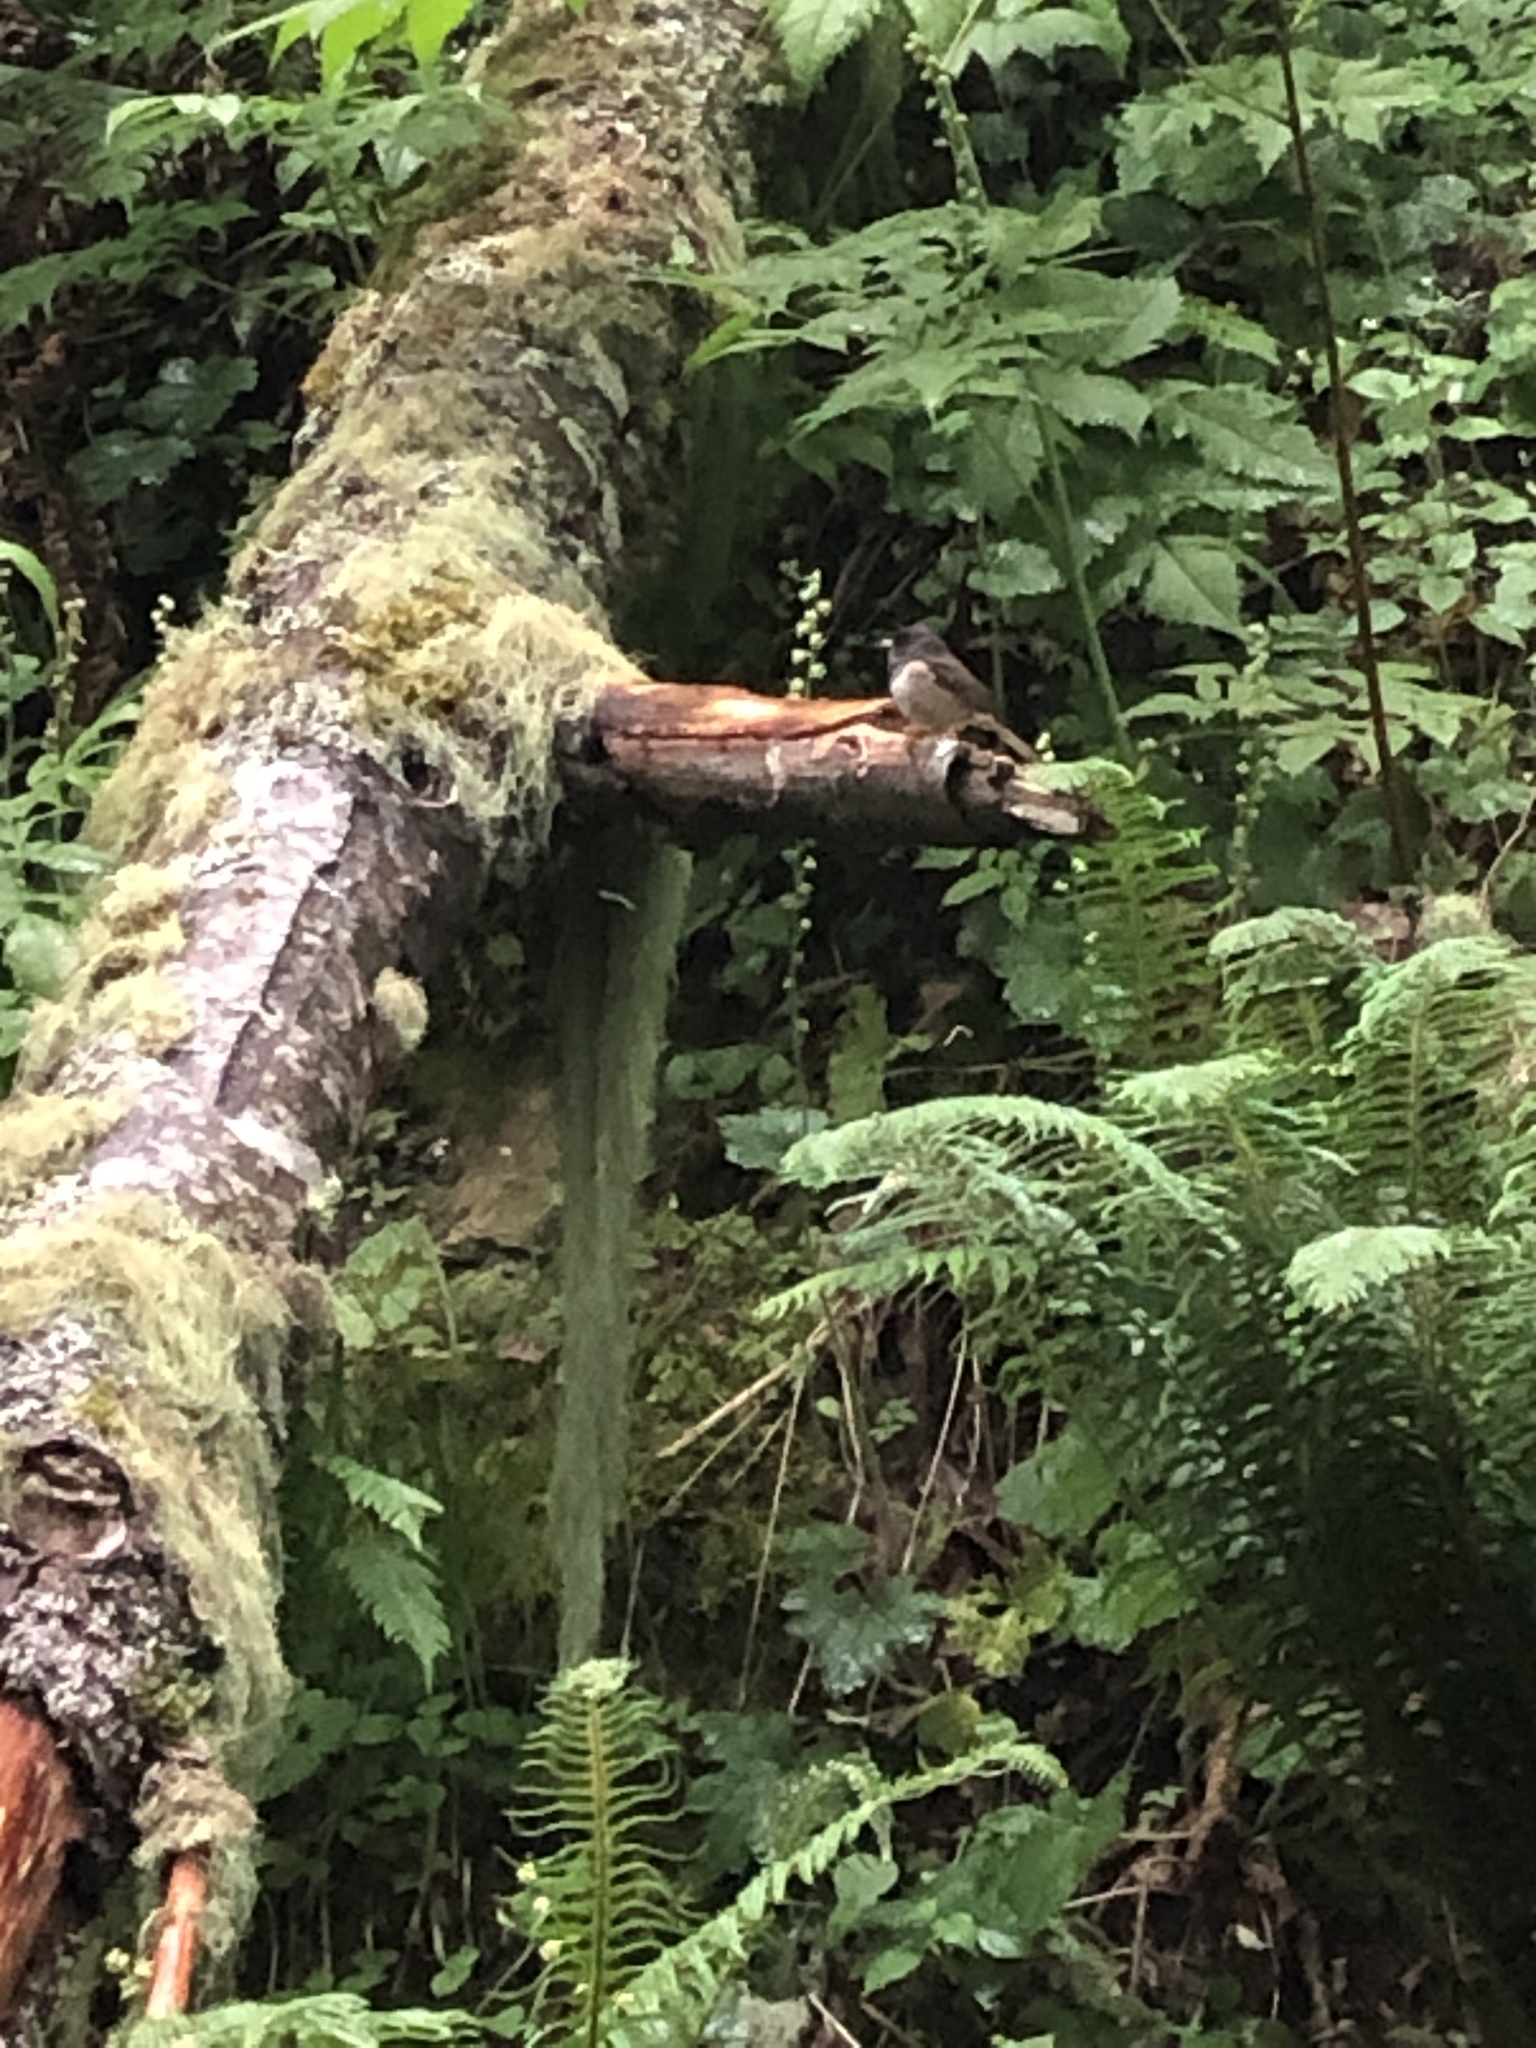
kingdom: Animalia
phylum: Chordata
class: Aves
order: Passeriformes
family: Passerellidae
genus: Junco
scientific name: Junco hyemalis
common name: Dark-eyed junco
